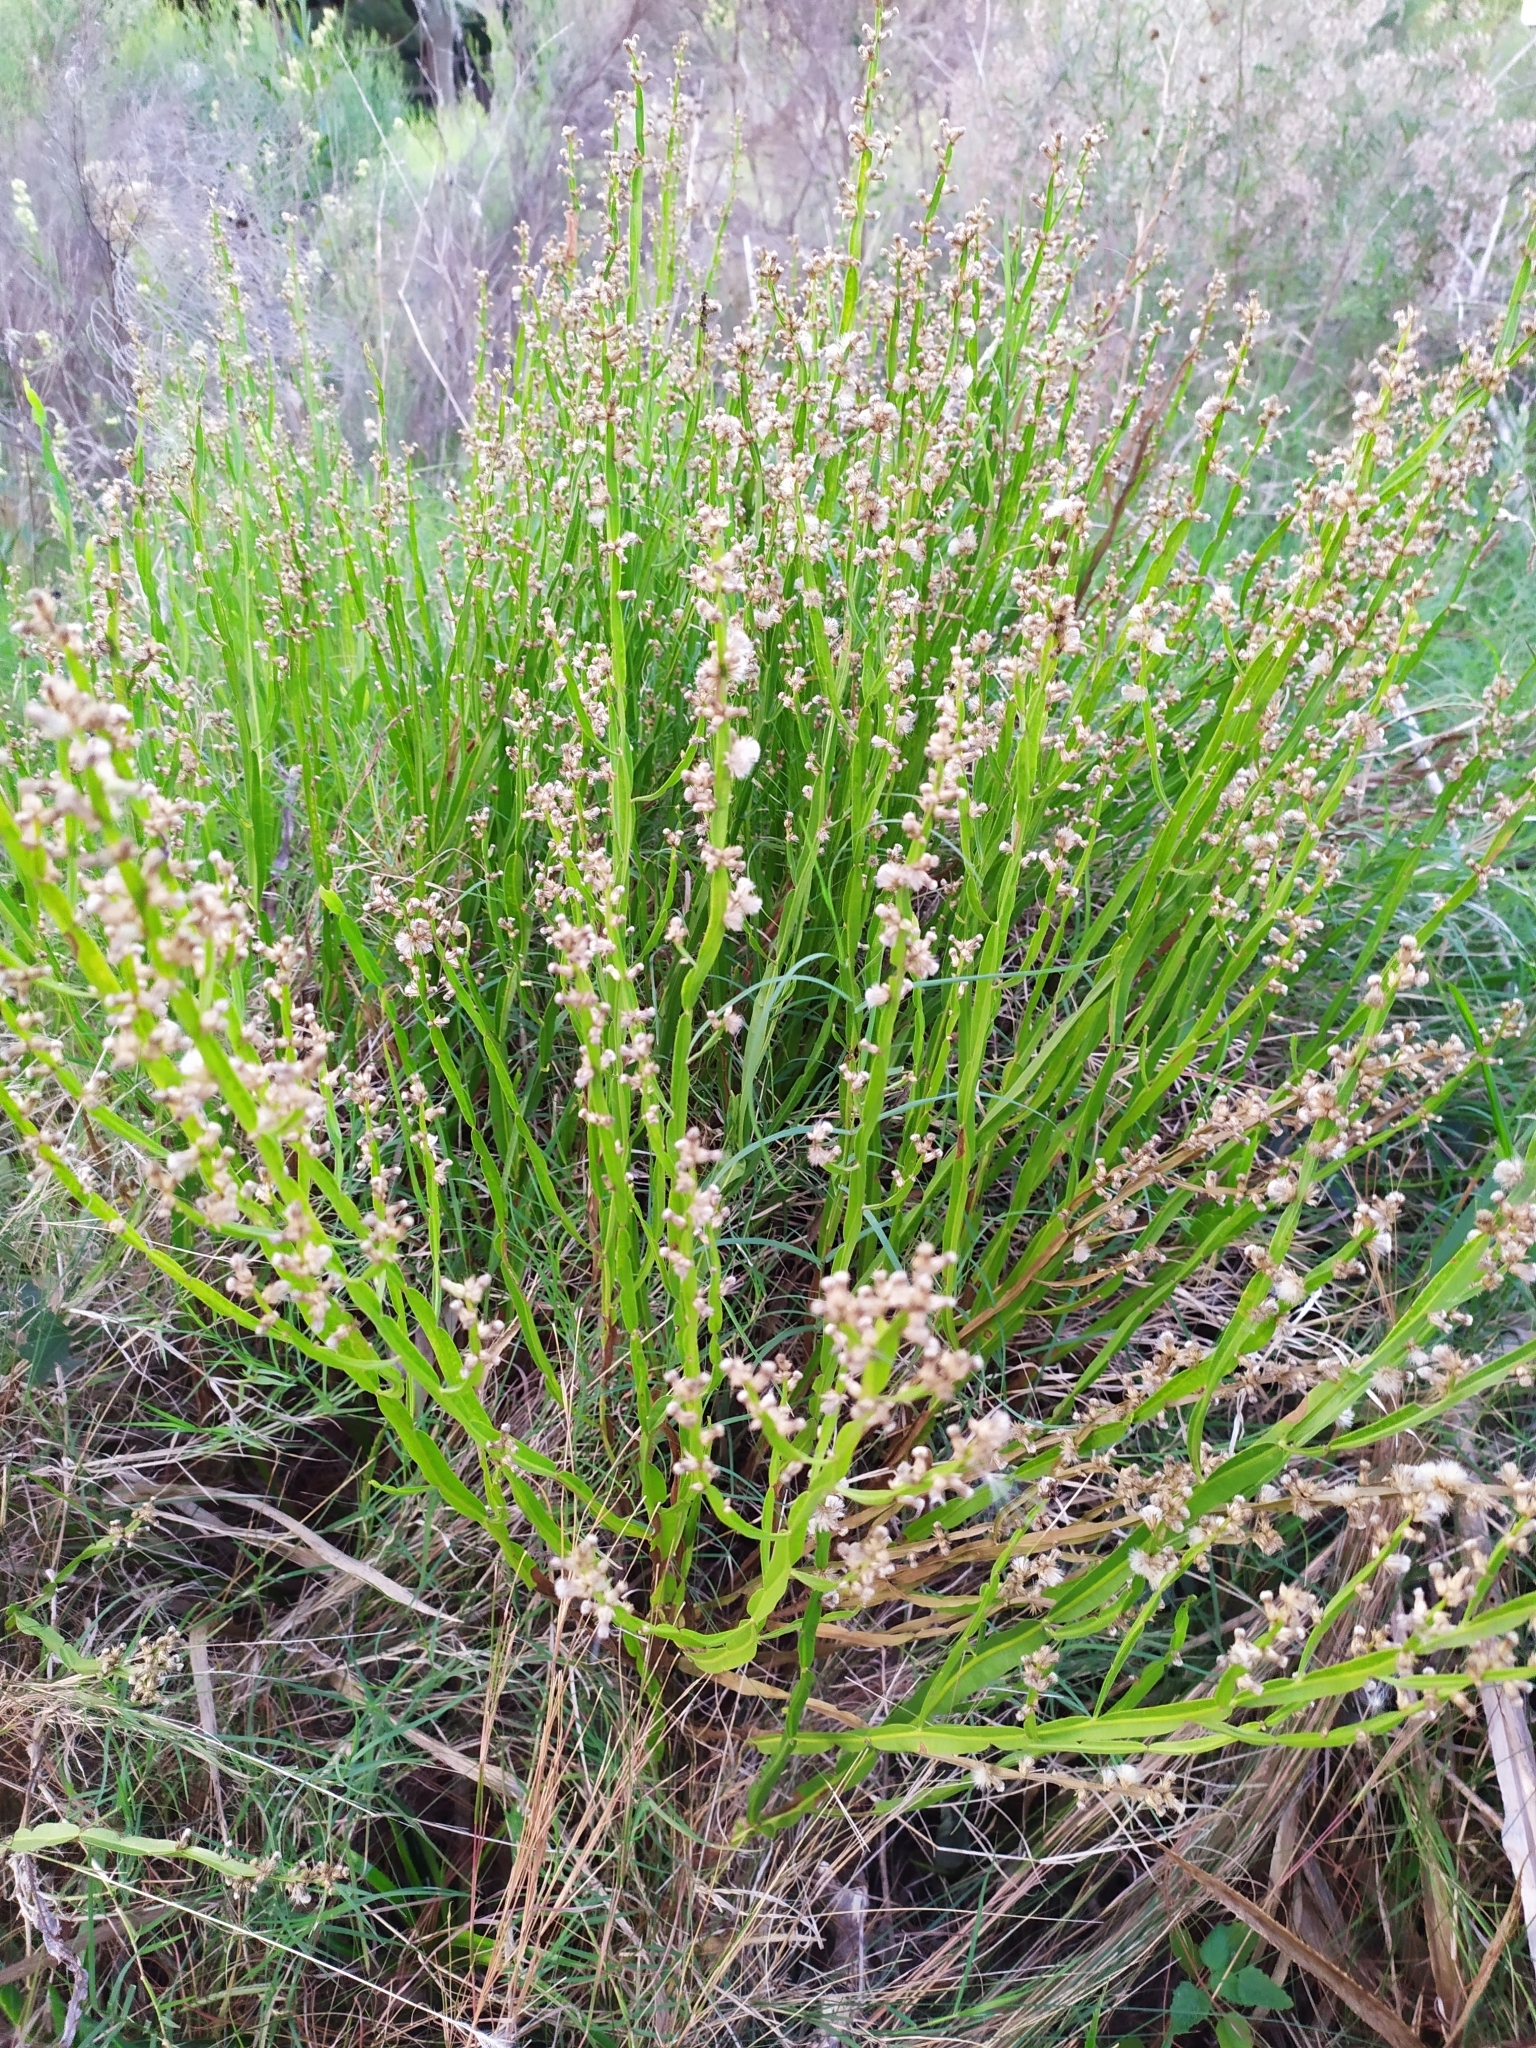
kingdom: Plantae
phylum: Tracheophyta
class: Magnoliopsida
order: Asterales
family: Asteraceae
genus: Baccharis
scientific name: Baccharis trimera
